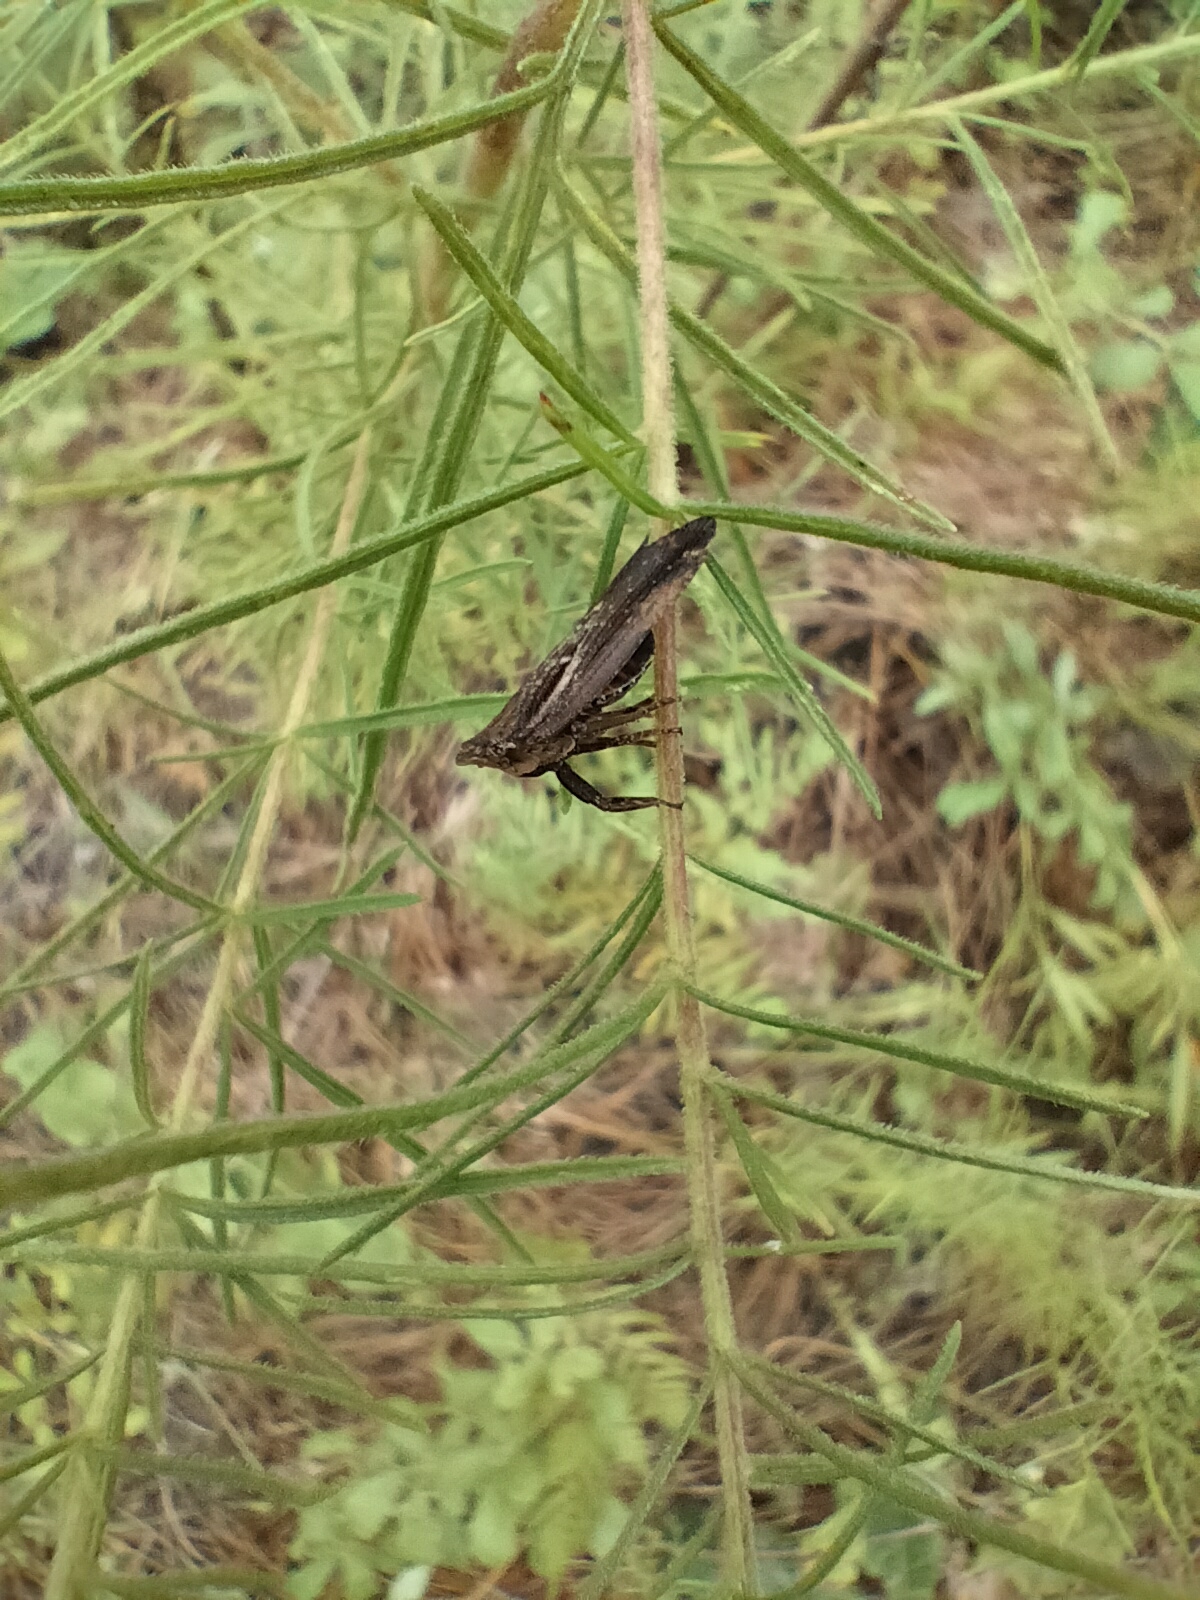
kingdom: Animalia
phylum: Arthropoda
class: Insecta
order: Hemiptera
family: Fulgoridae
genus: Cyrpoptus
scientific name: Cyrpoptus reineckei
